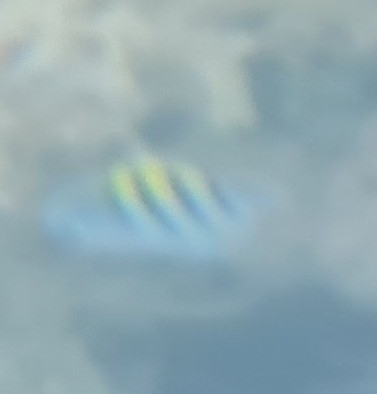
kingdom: Animalia
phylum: Chordata
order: Perciformes
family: Pomacentridae
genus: Abudefduf
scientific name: Abudefduf saxatilis
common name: Sergeant major
